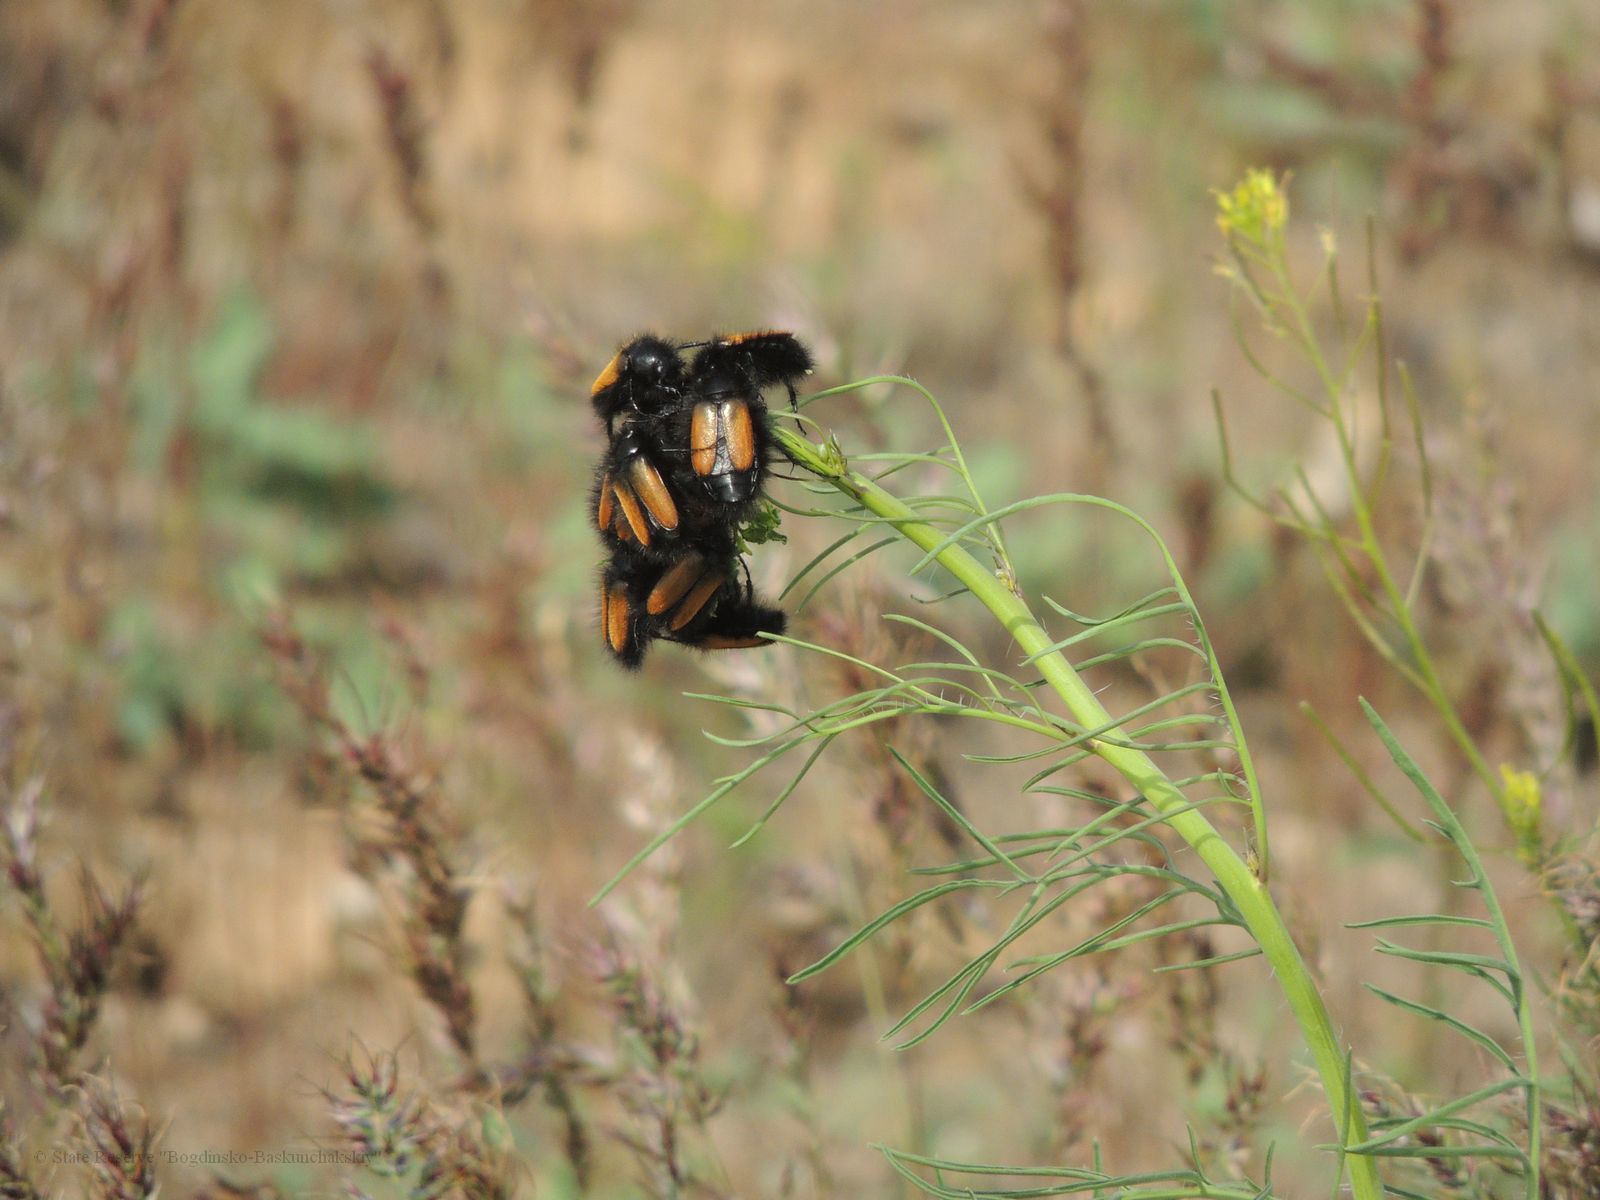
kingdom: Animalia
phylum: Arthropoda
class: Insecta
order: Coleoptera
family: Glaphyridae
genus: Eulasia
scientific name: Eulasia bombyliformis
